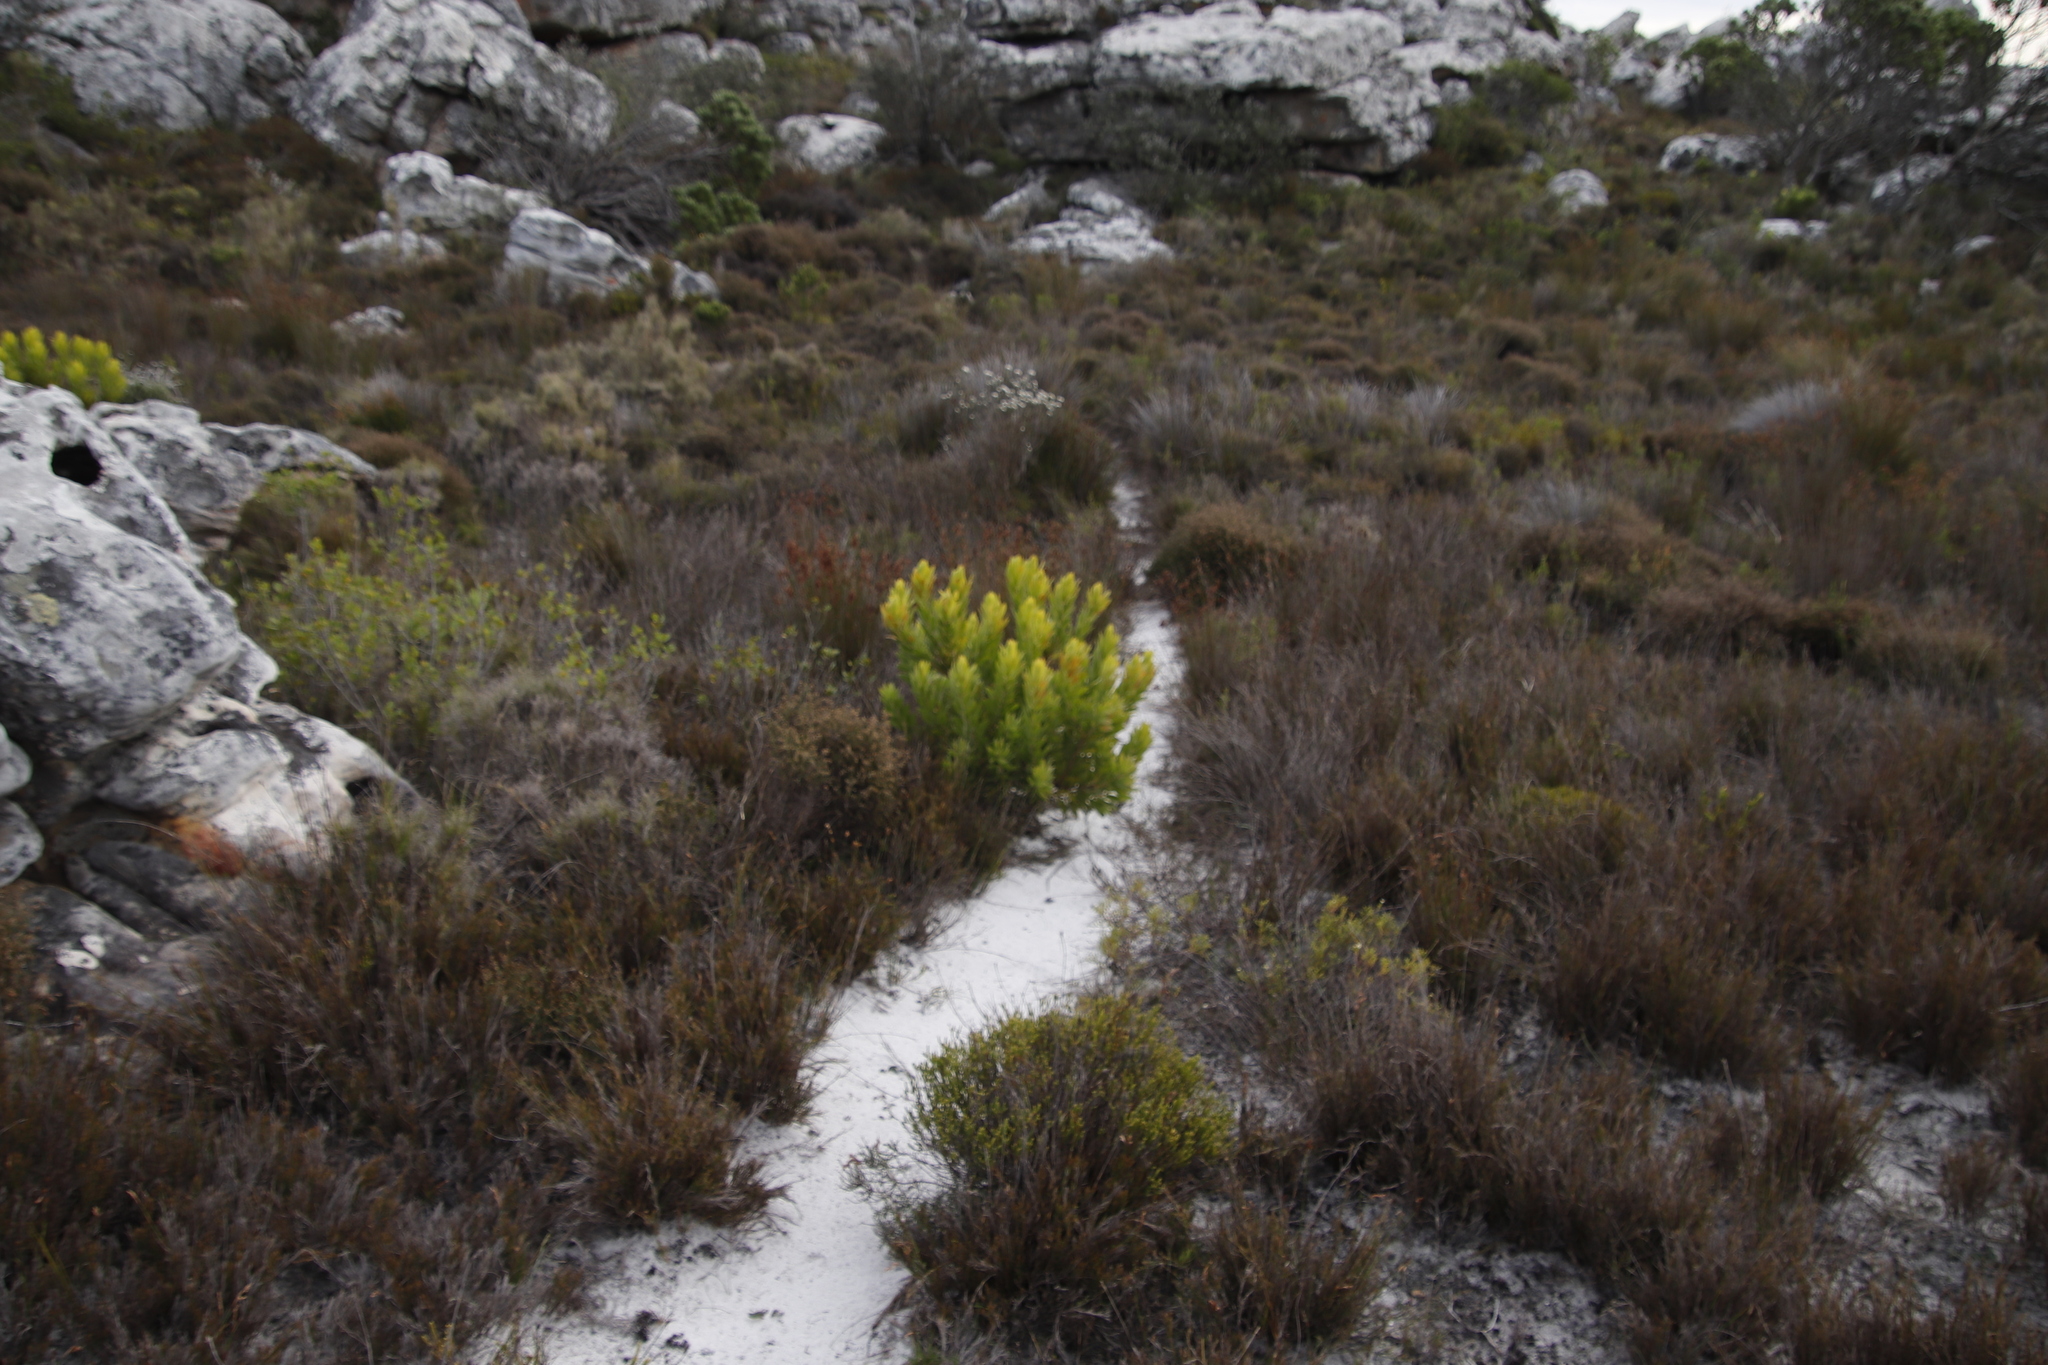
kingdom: Plantae
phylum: Tracheophyta
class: Magnoliopsida
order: Proteales
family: Proteaceae
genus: Leucadendron
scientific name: Leucadendron laureolum
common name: Golden sunshinebush
